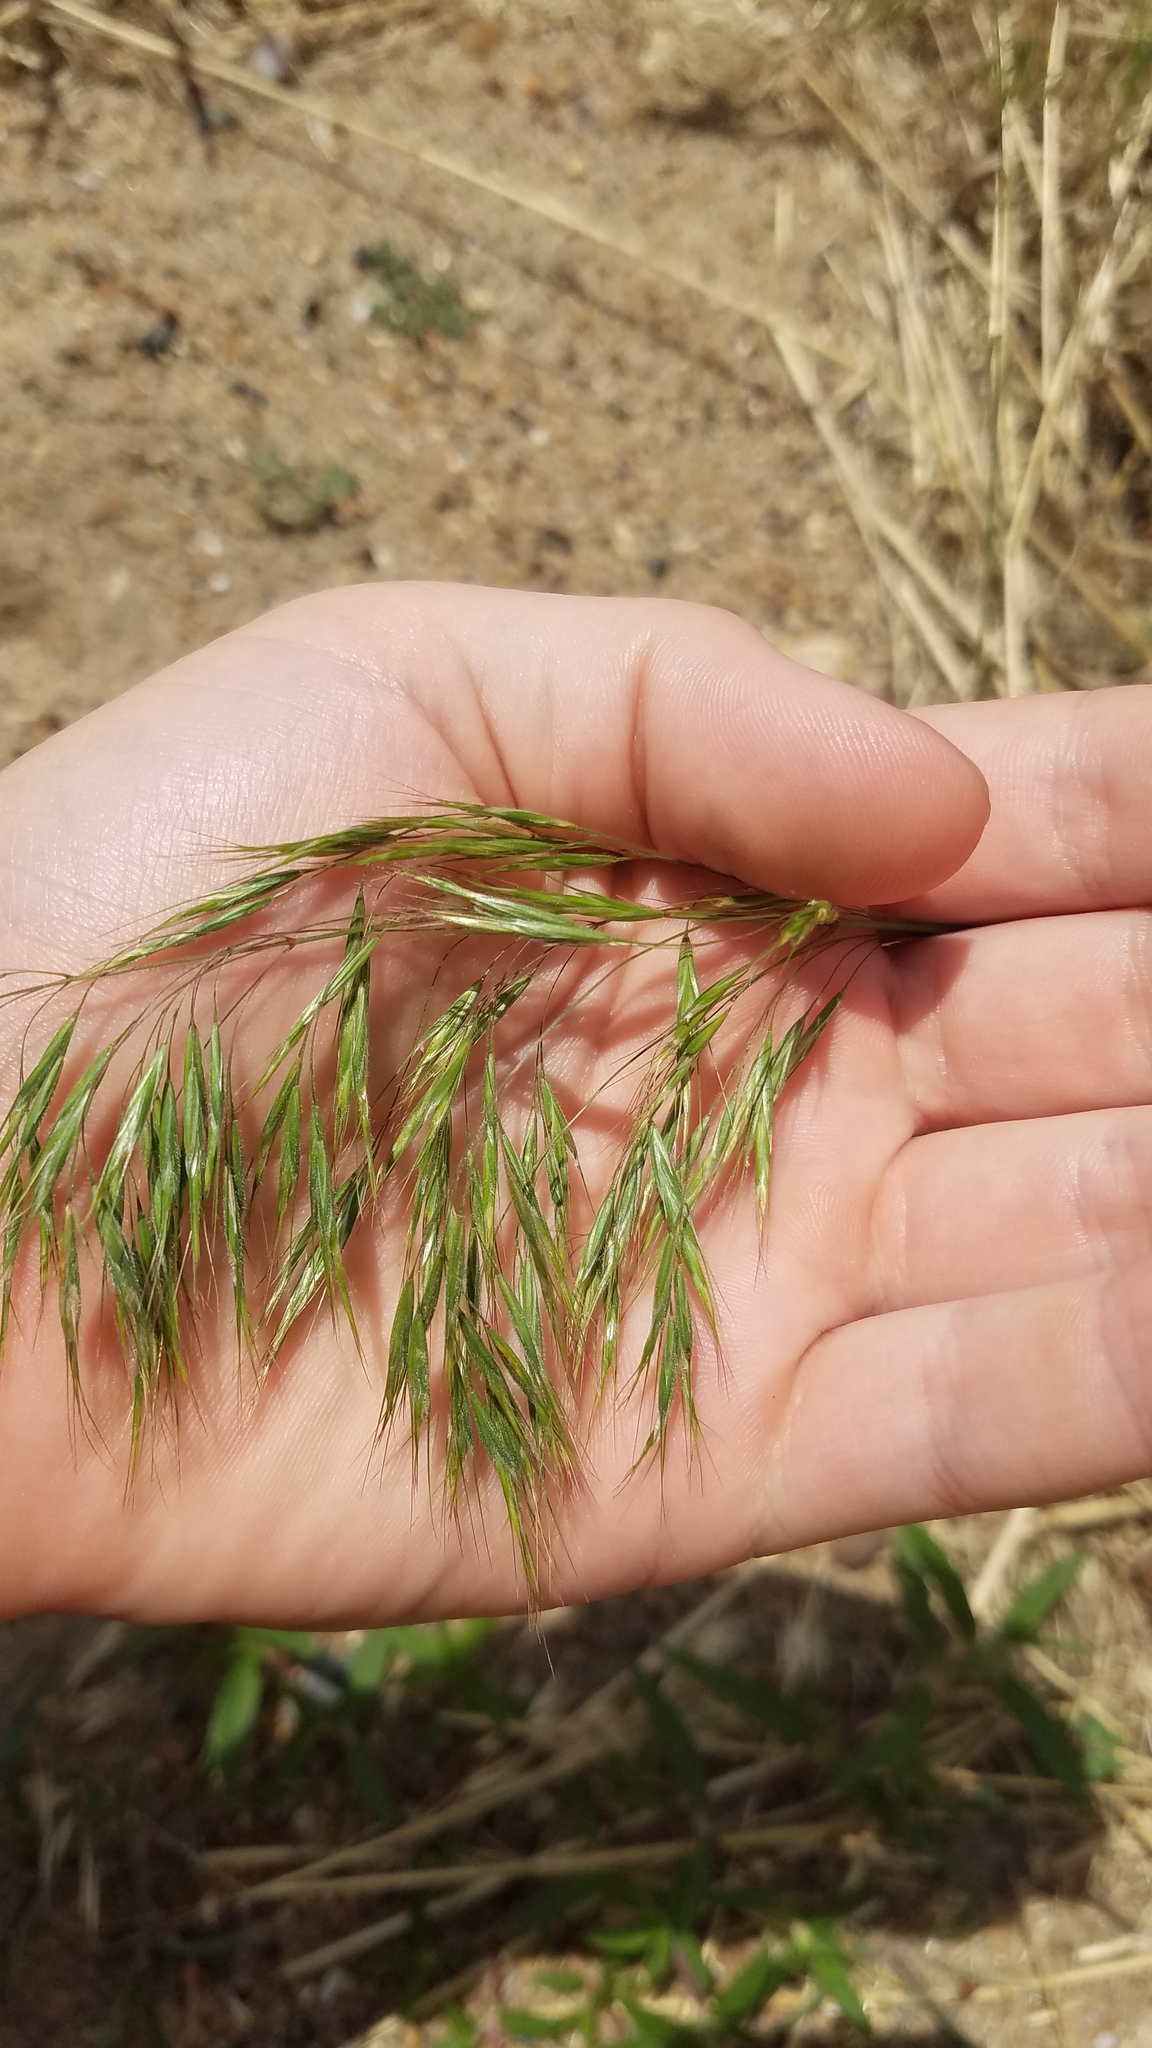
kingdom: Plantae
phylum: Tracheophyta
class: Liliopsida
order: Poales
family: Poaceae
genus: Bromus
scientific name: Bromus tectorum
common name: Cheatgrass
